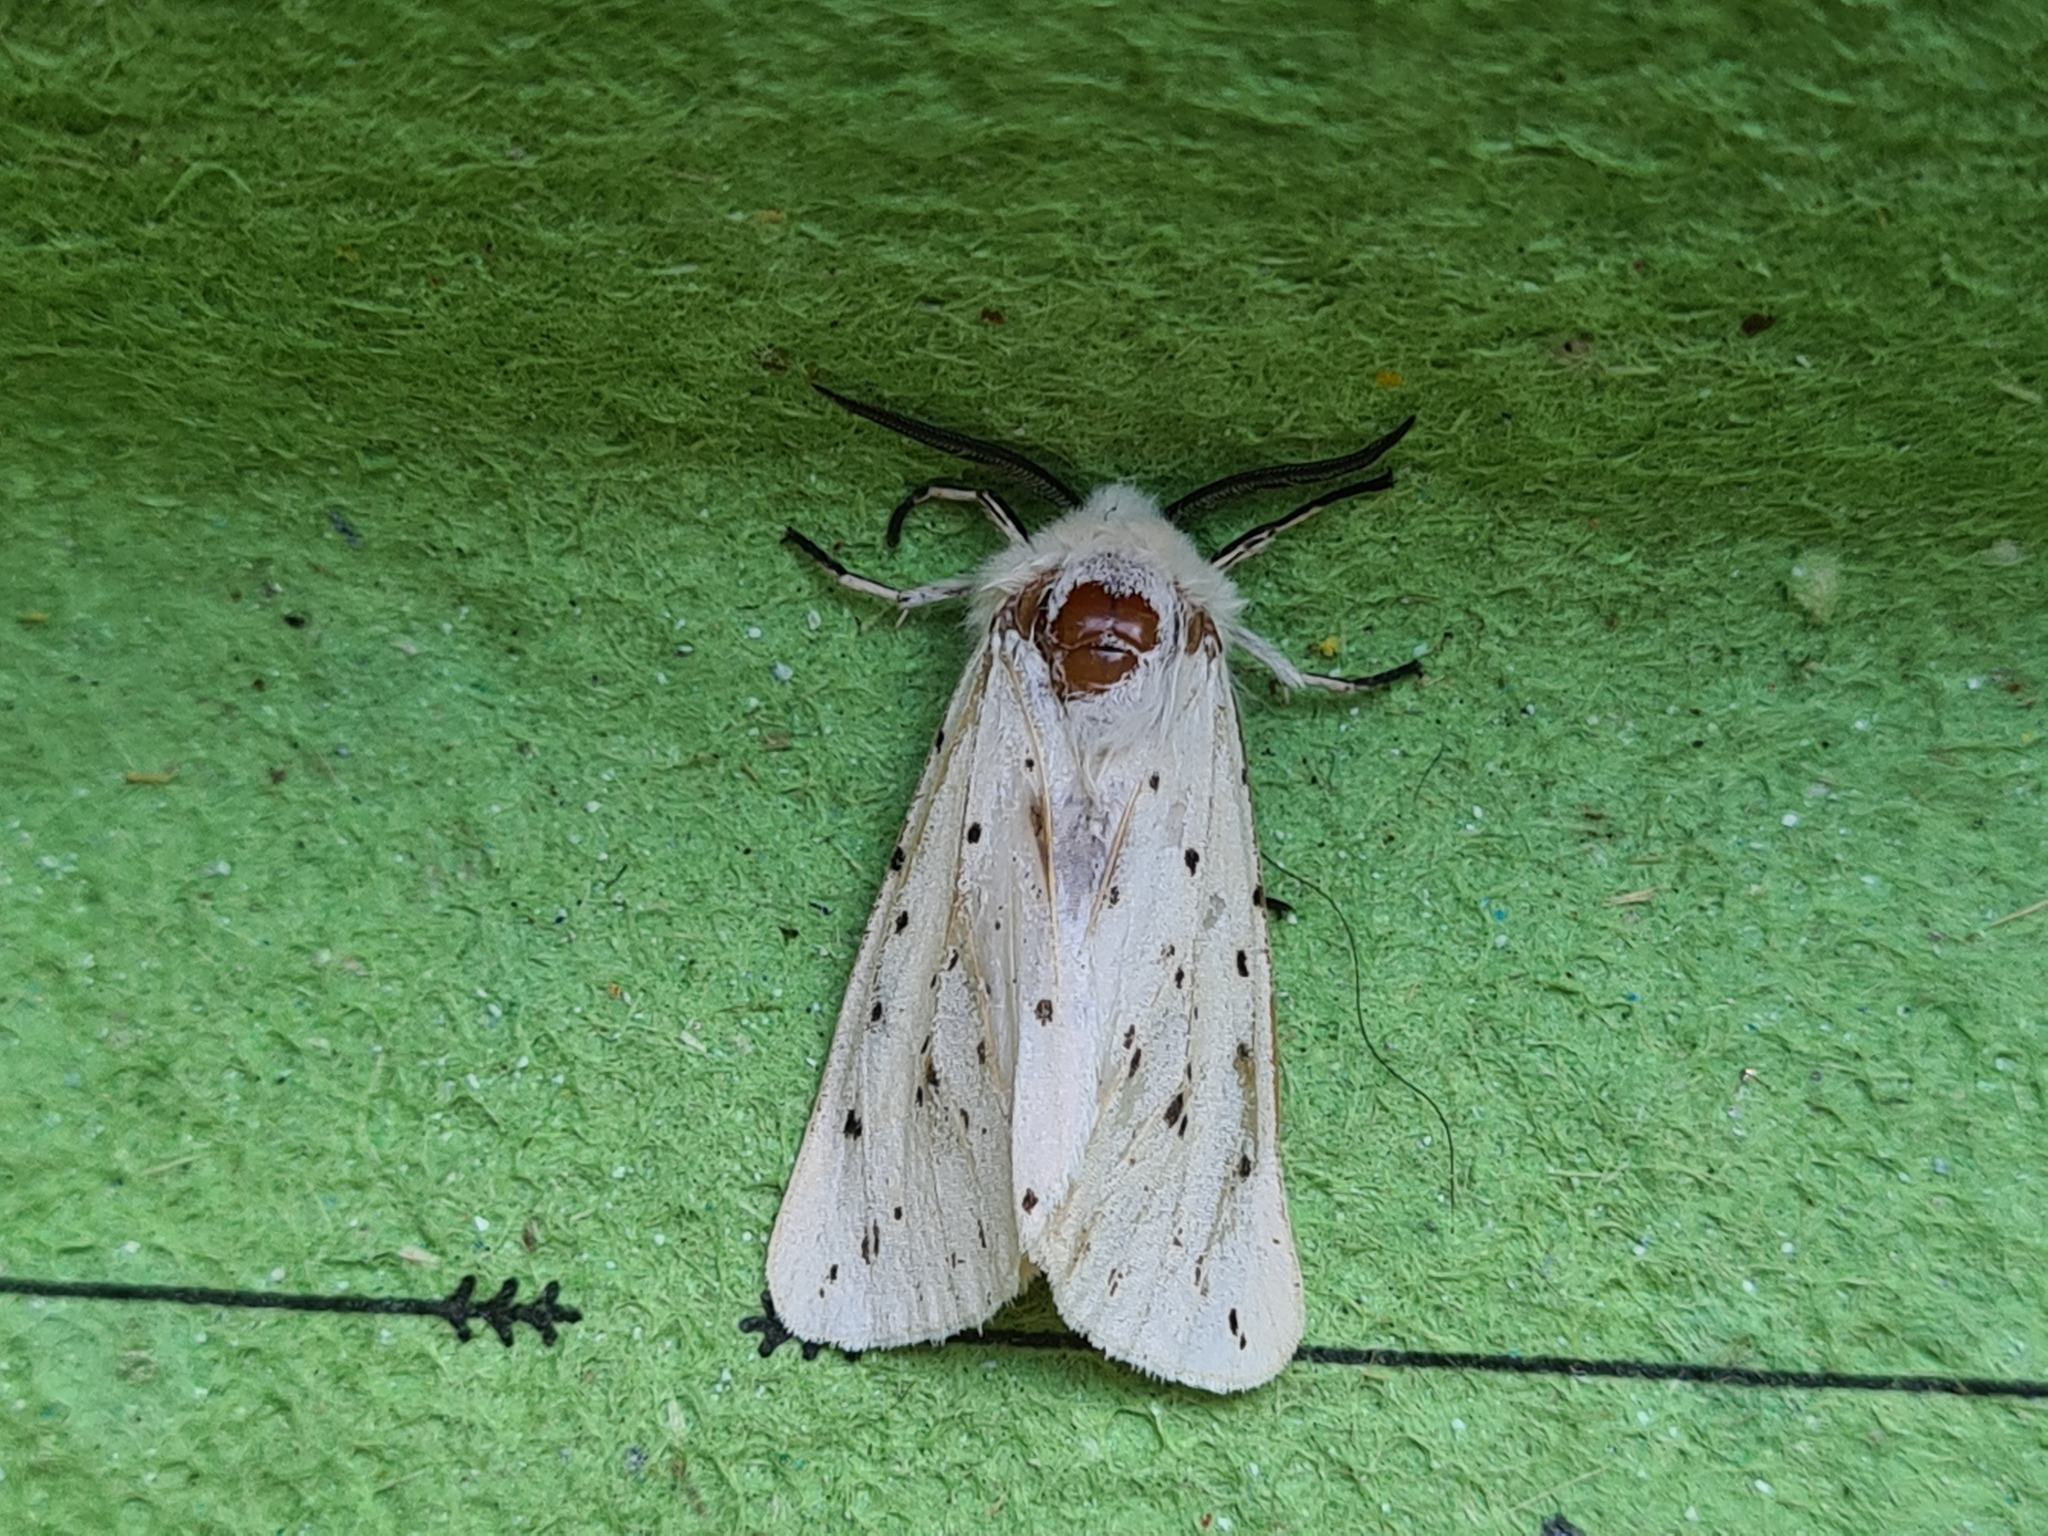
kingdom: Animalia
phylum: Arthropoda
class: Insecta
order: Lepidoptera
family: Erebidae
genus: Spilosoma
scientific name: Spilosoma lubricipeda
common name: White ermine
